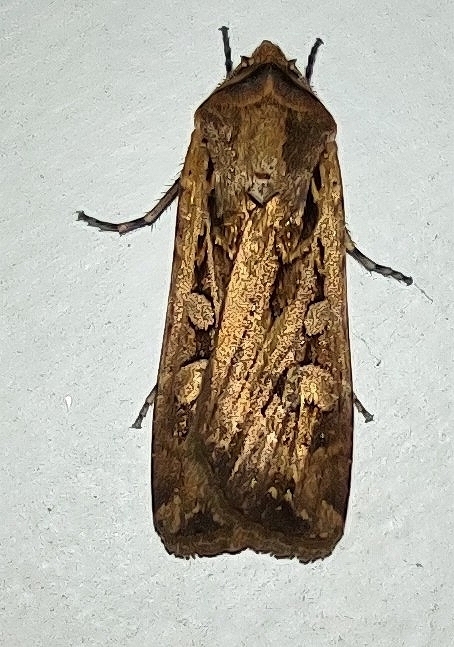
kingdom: Animalia
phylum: Arthropoda
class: Insecta
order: Lepidoptera
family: Noctuidae
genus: Euxoa
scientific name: Euxoa auxiliaris
